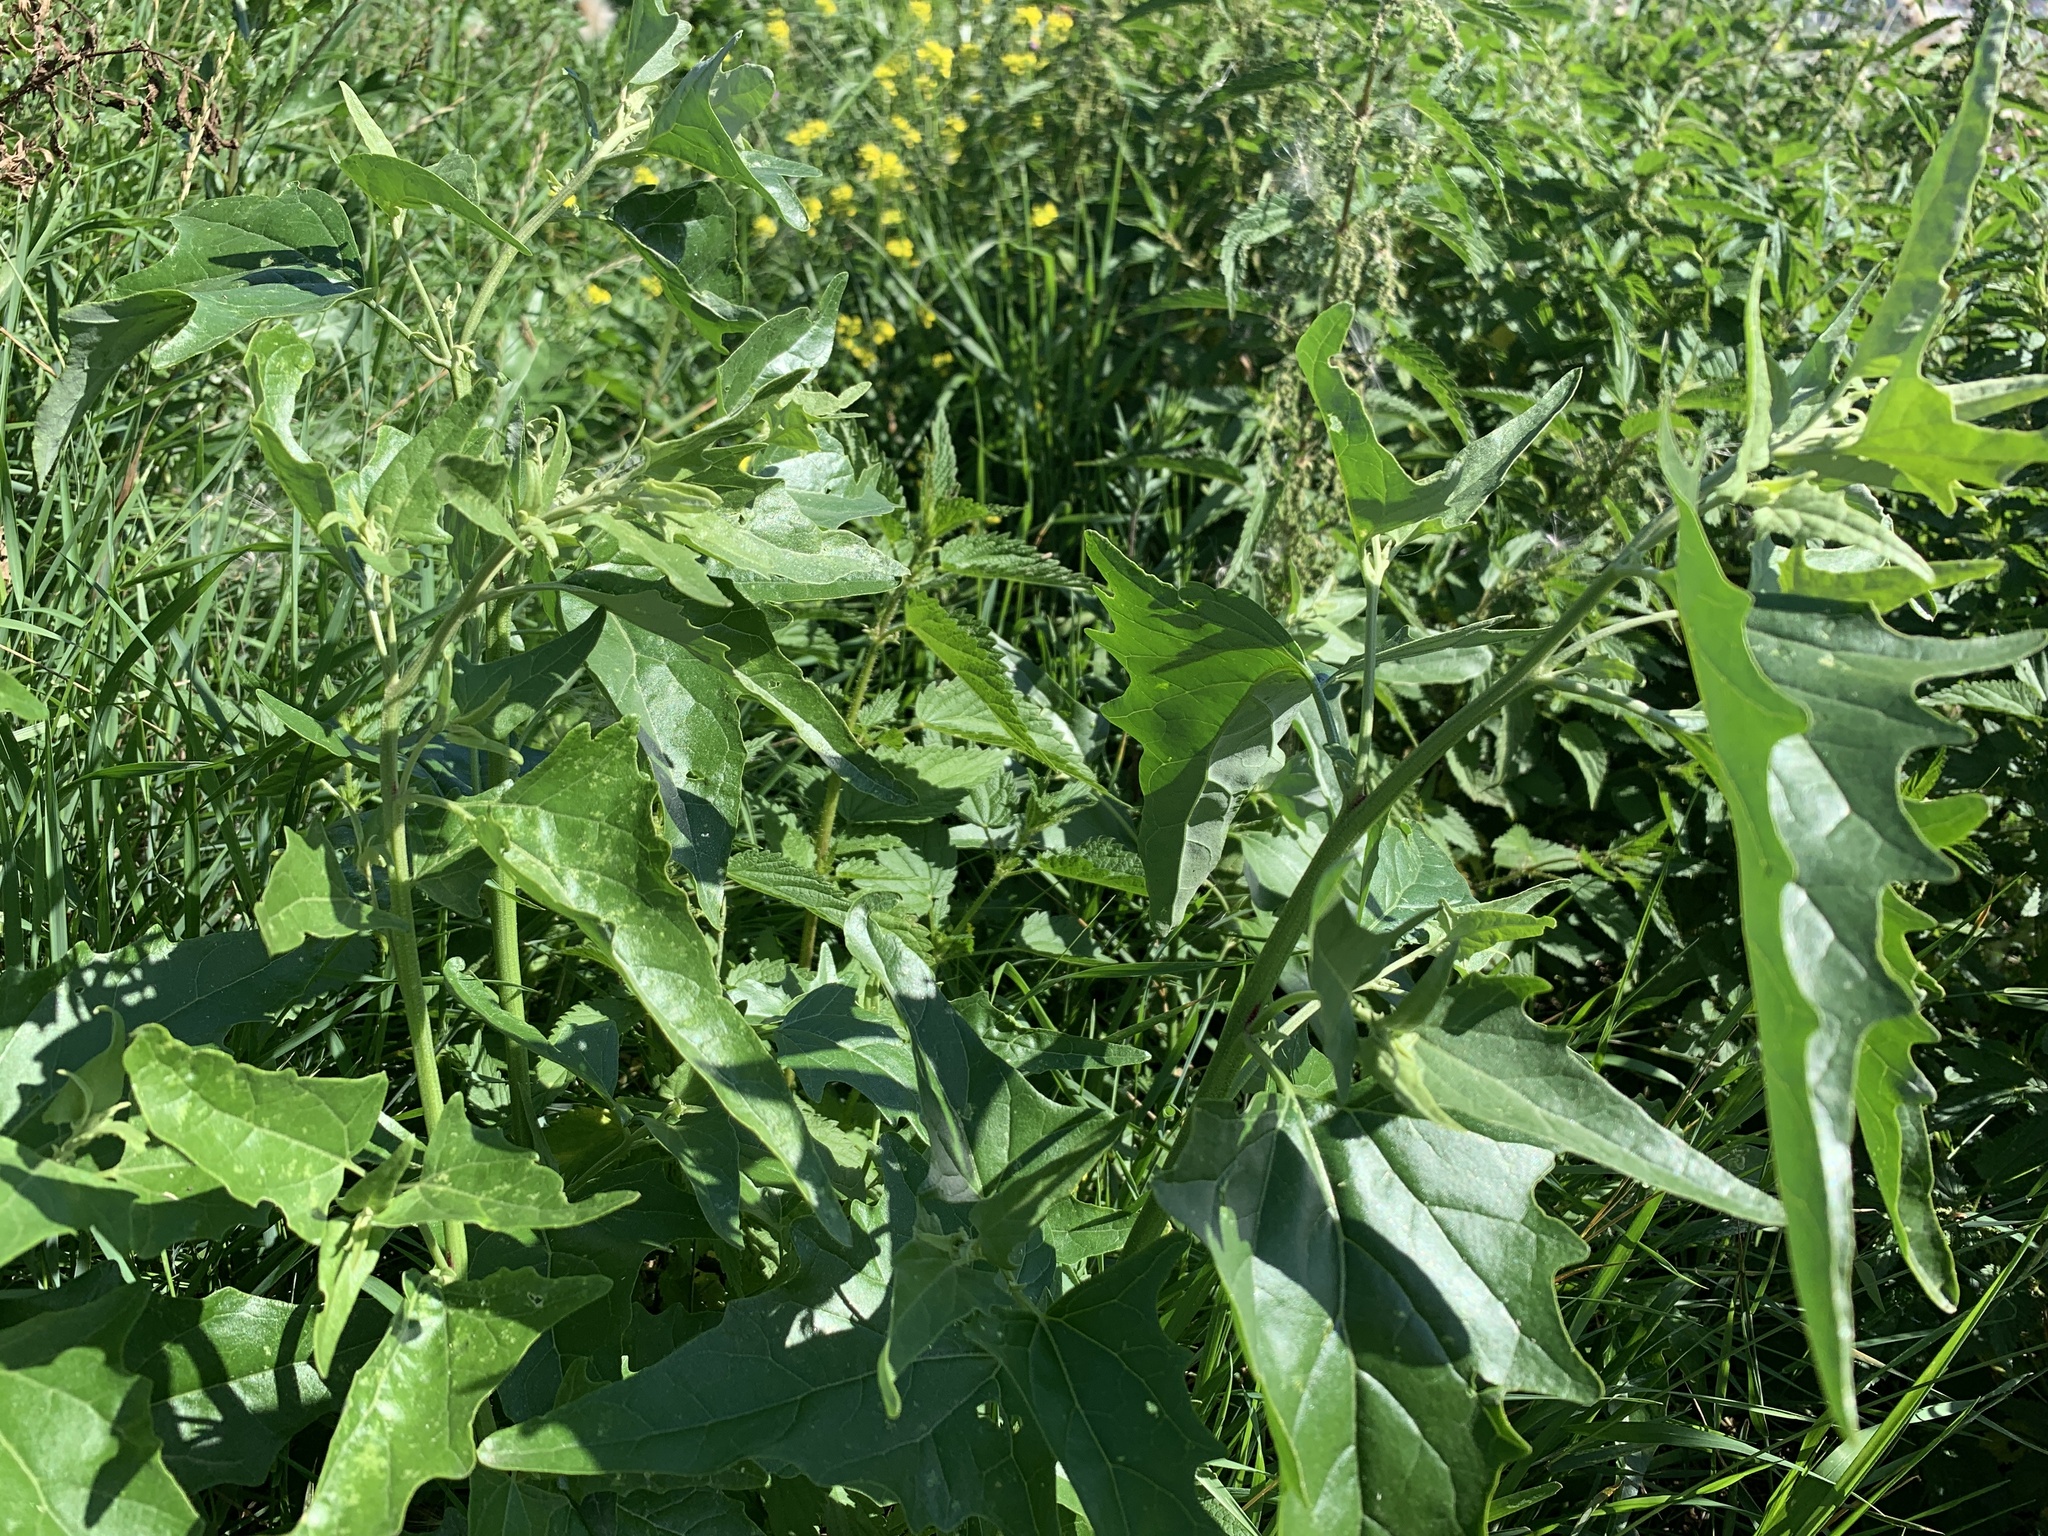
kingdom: Plantae
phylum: Tracheophyta
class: Magnoliopsida
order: Caryophyllales
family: Amaranthaceae
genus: Atriplex
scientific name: Atriplex sagittata
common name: Purple orache
